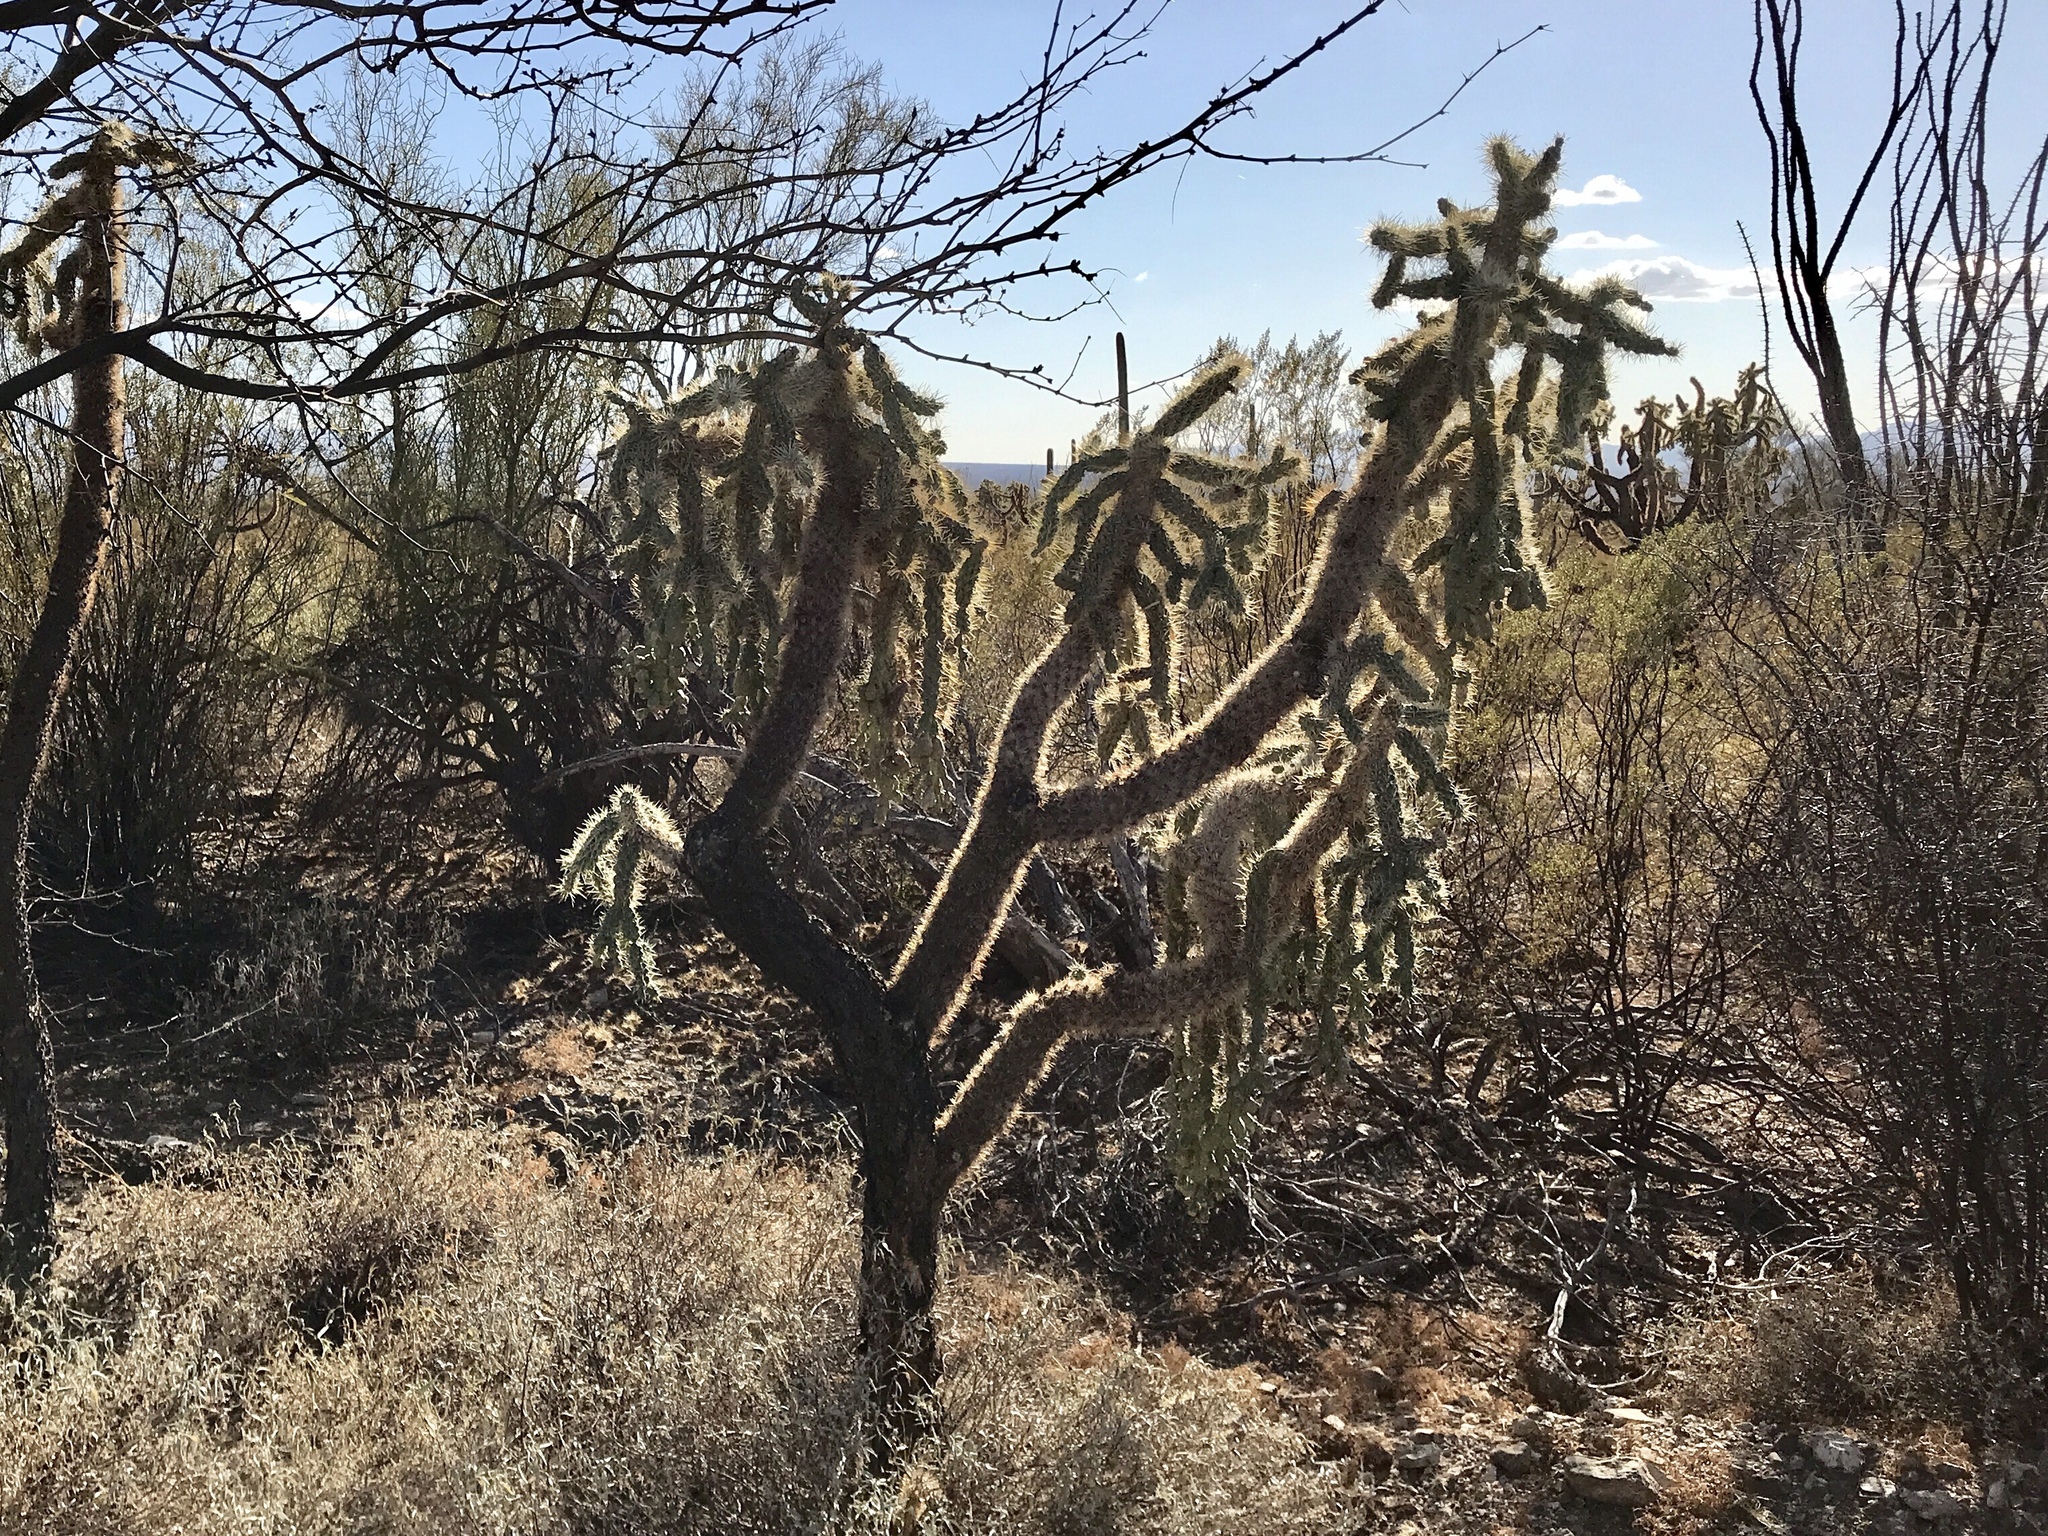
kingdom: Plantae
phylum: Tracheophyta
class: Magnoliopsida
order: Caryophyllales
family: Cactaceae
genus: Cylindropuntia
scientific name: Cylindropuntia fulgida
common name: Jumping cholla
